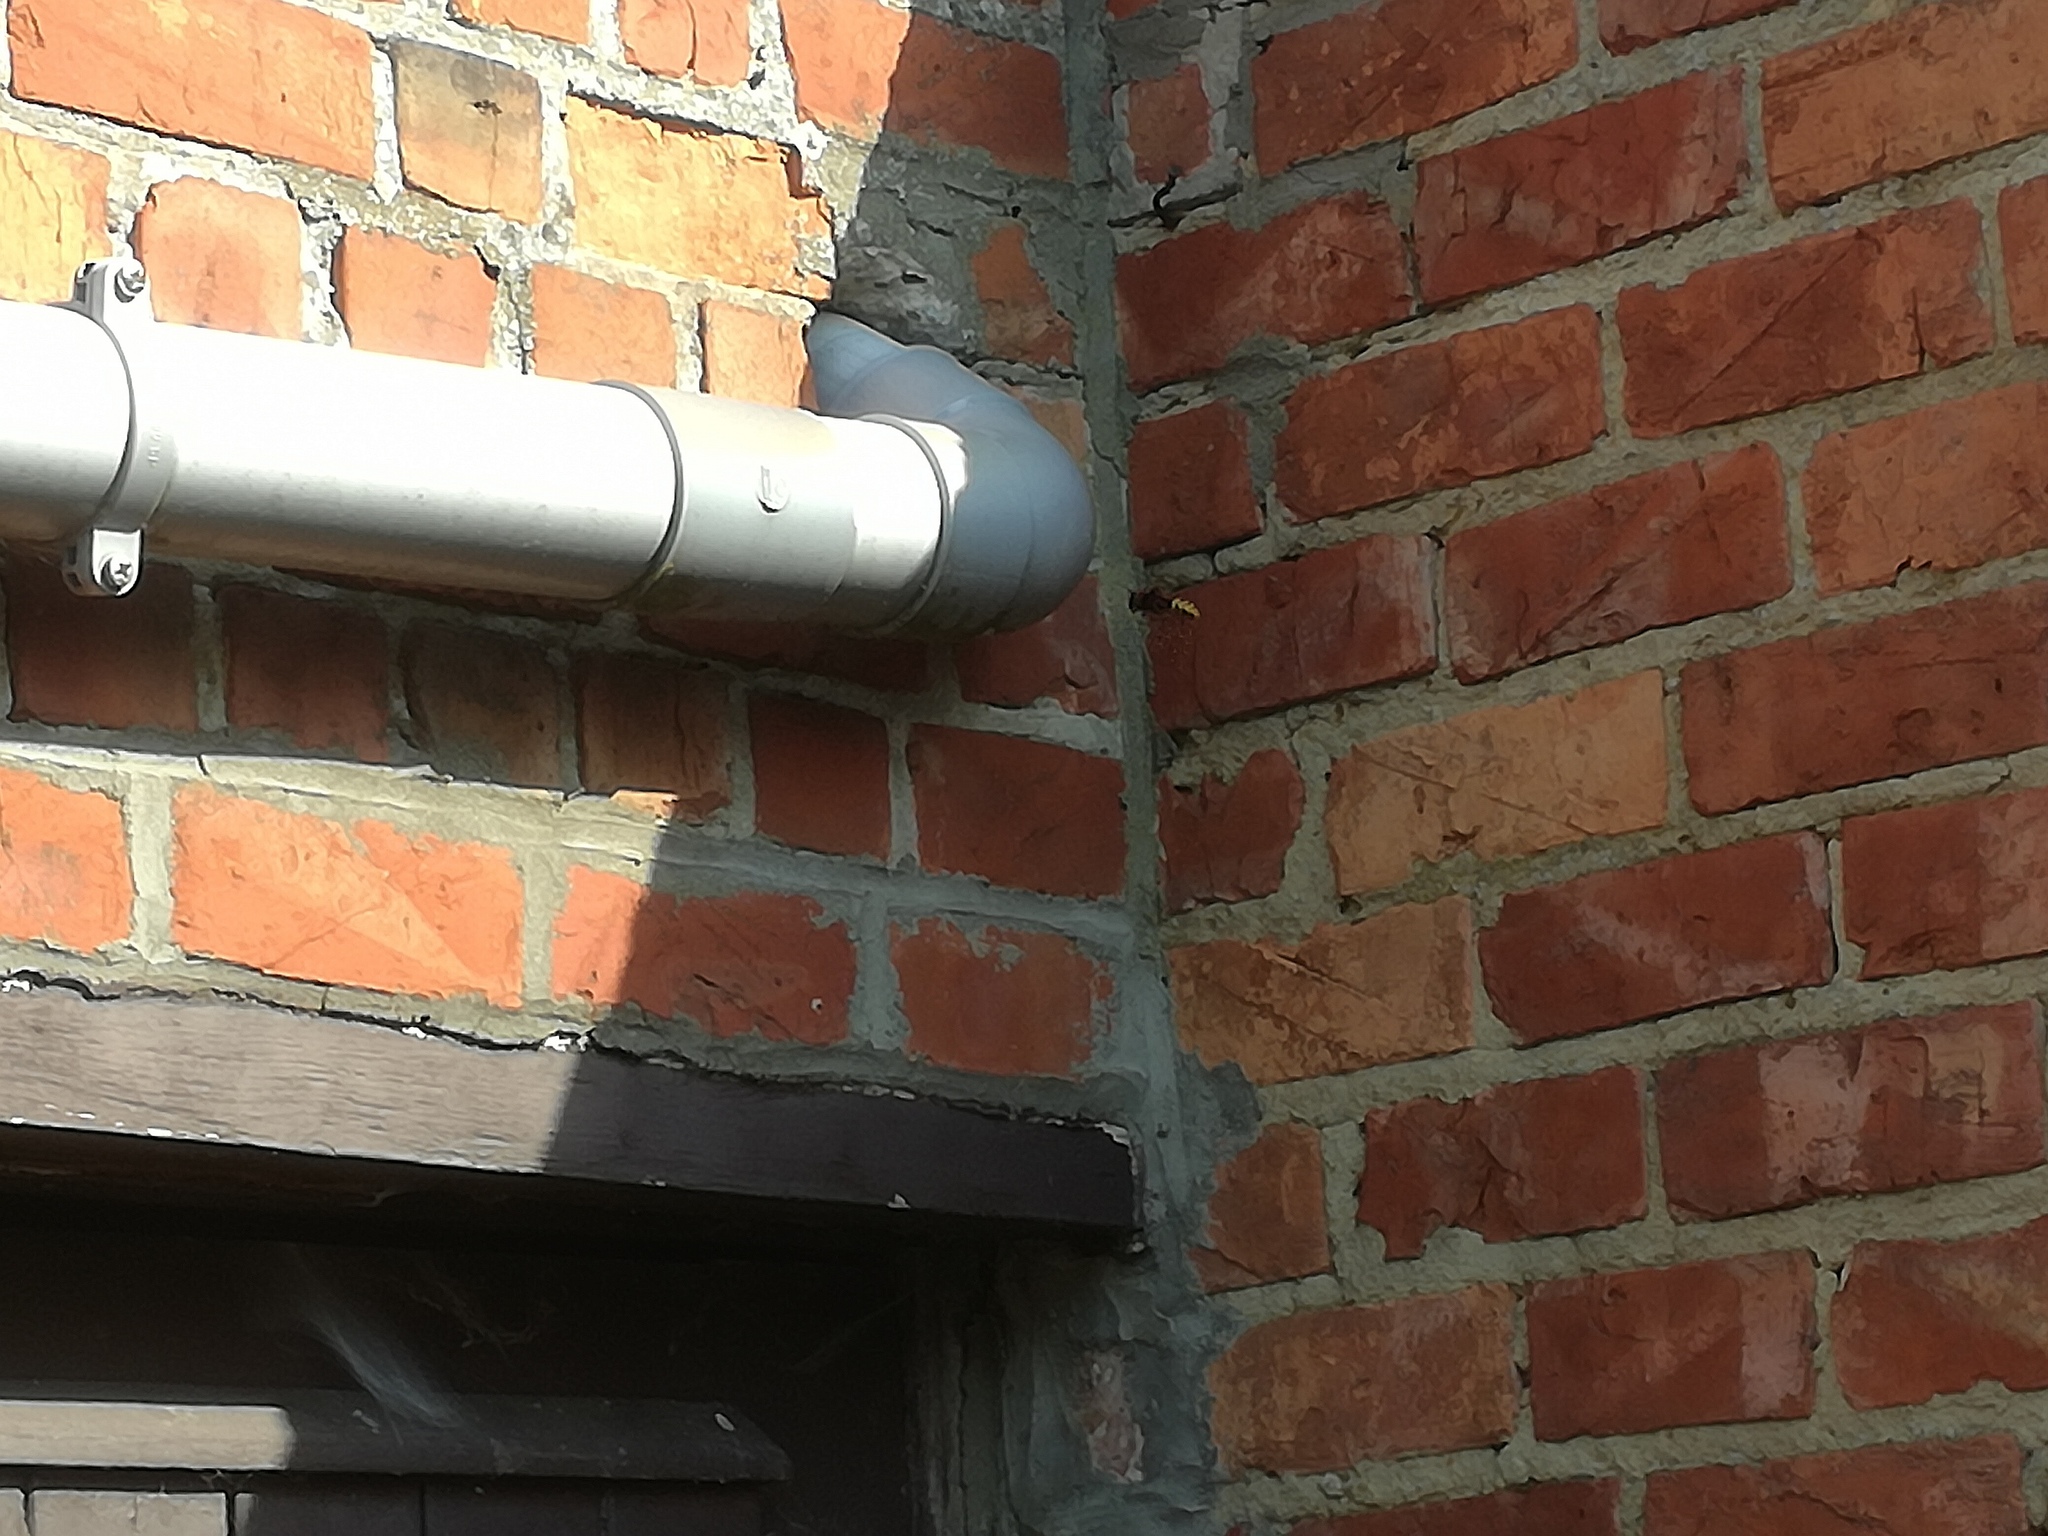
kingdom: Animalia
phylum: Arthropoda
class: Insecta
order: Hymenoptera
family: Vespidae
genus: Vespa
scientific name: Vespa crabro
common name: Hornet
